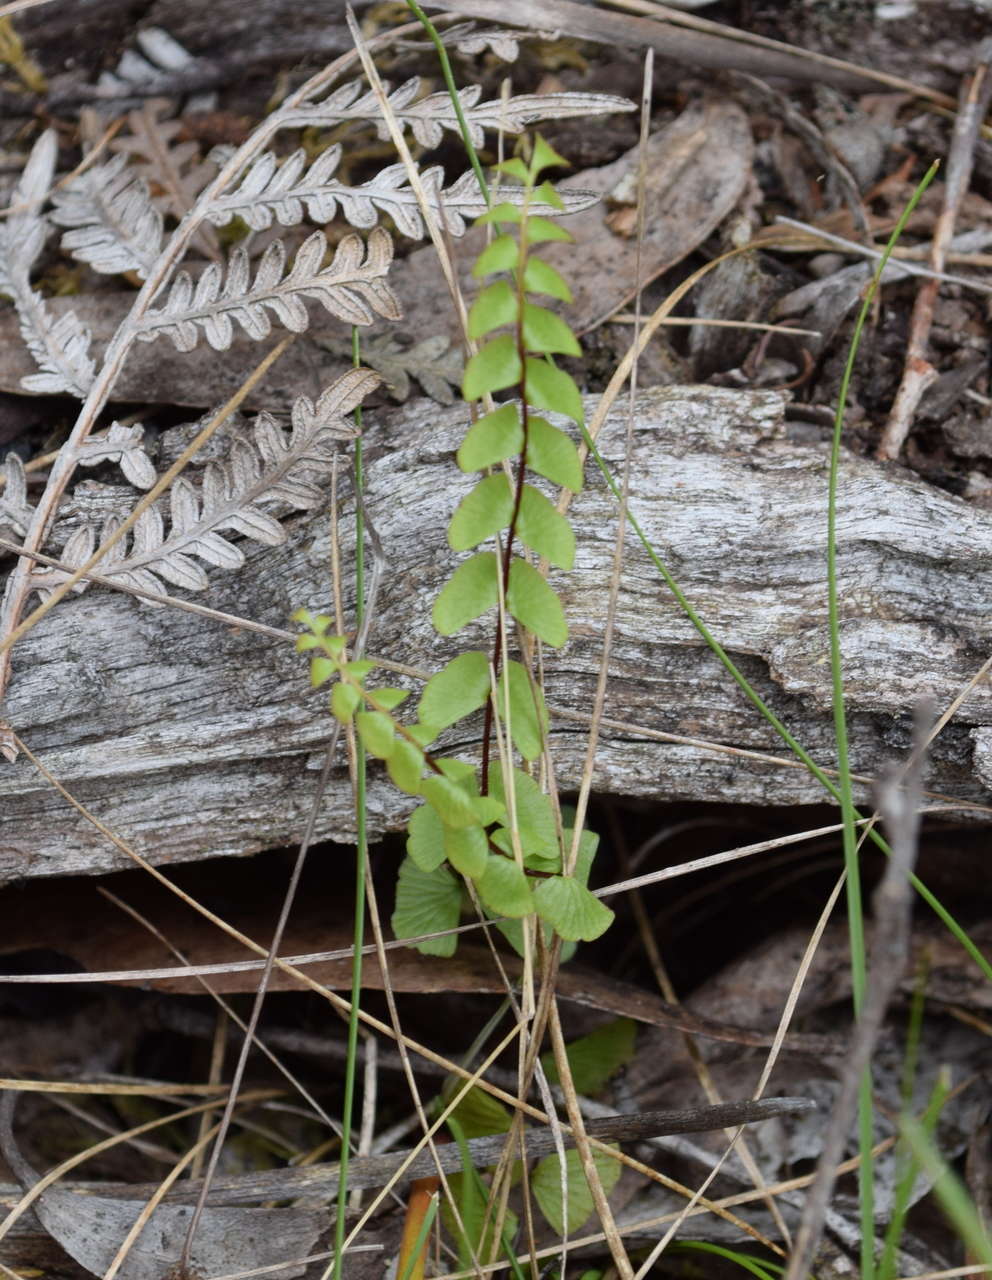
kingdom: Plantae
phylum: Tracheophyta
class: Polypodiopsida
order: Polypodiales
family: Lindsaeaceae
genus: Lindsaea
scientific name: Lindsaea linearis
